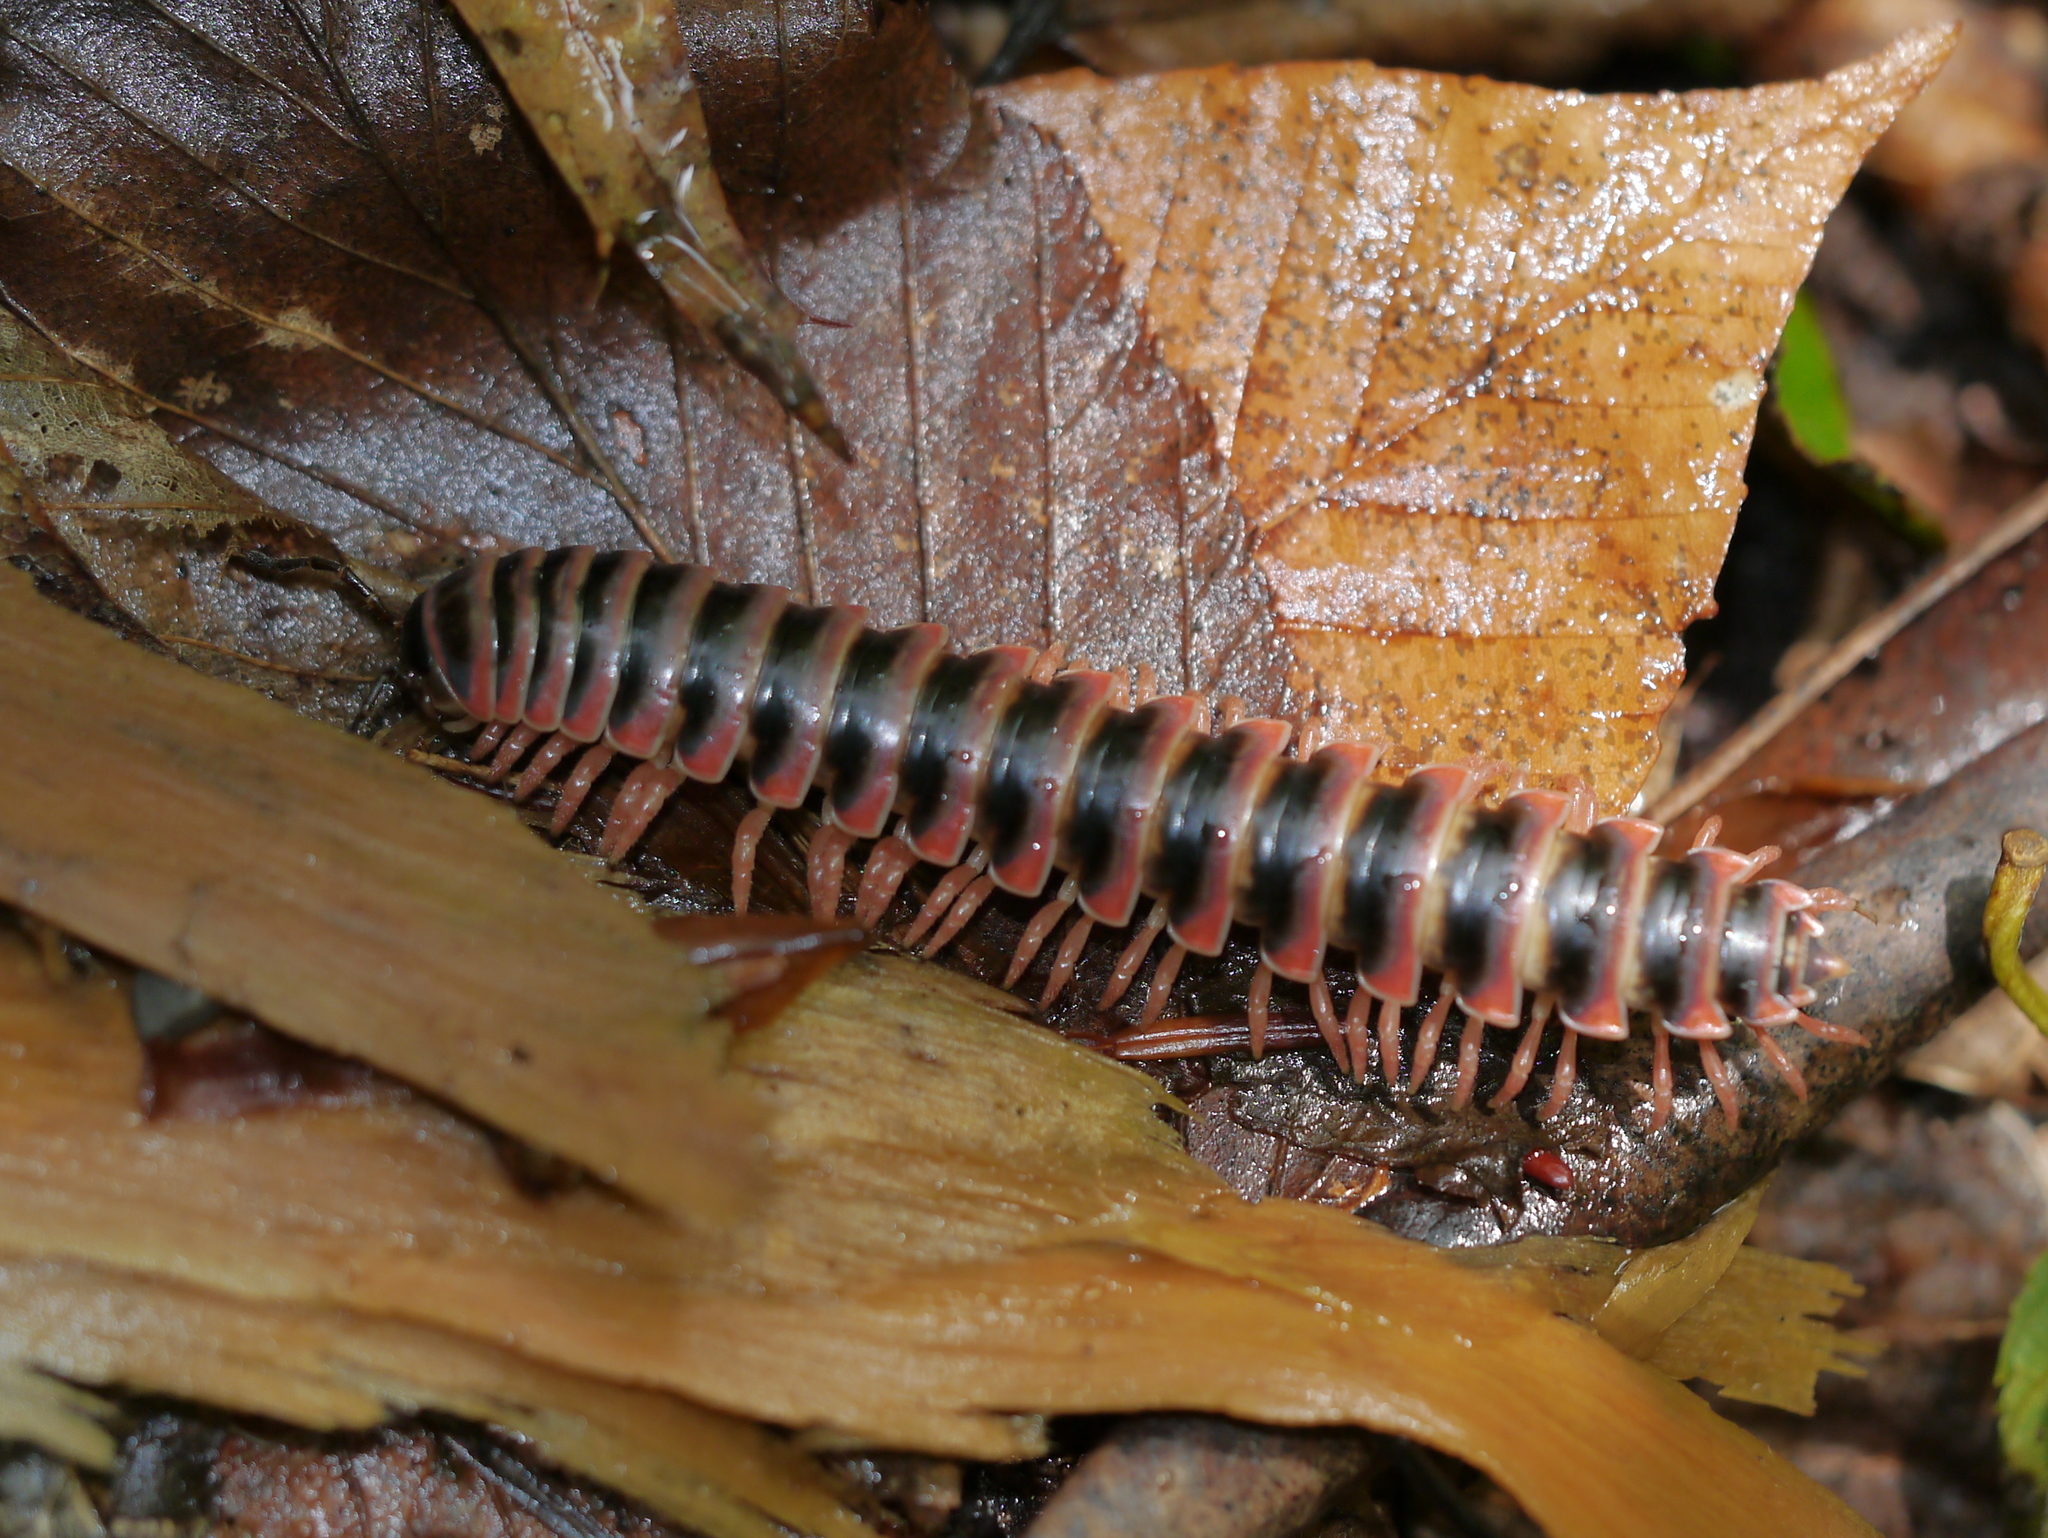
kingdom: Animalia
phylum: Arthropoda
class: Diplopoda
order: Polydesmida
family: Xystodesmidae
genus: Sigmoria
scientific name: Sigmoria latior
